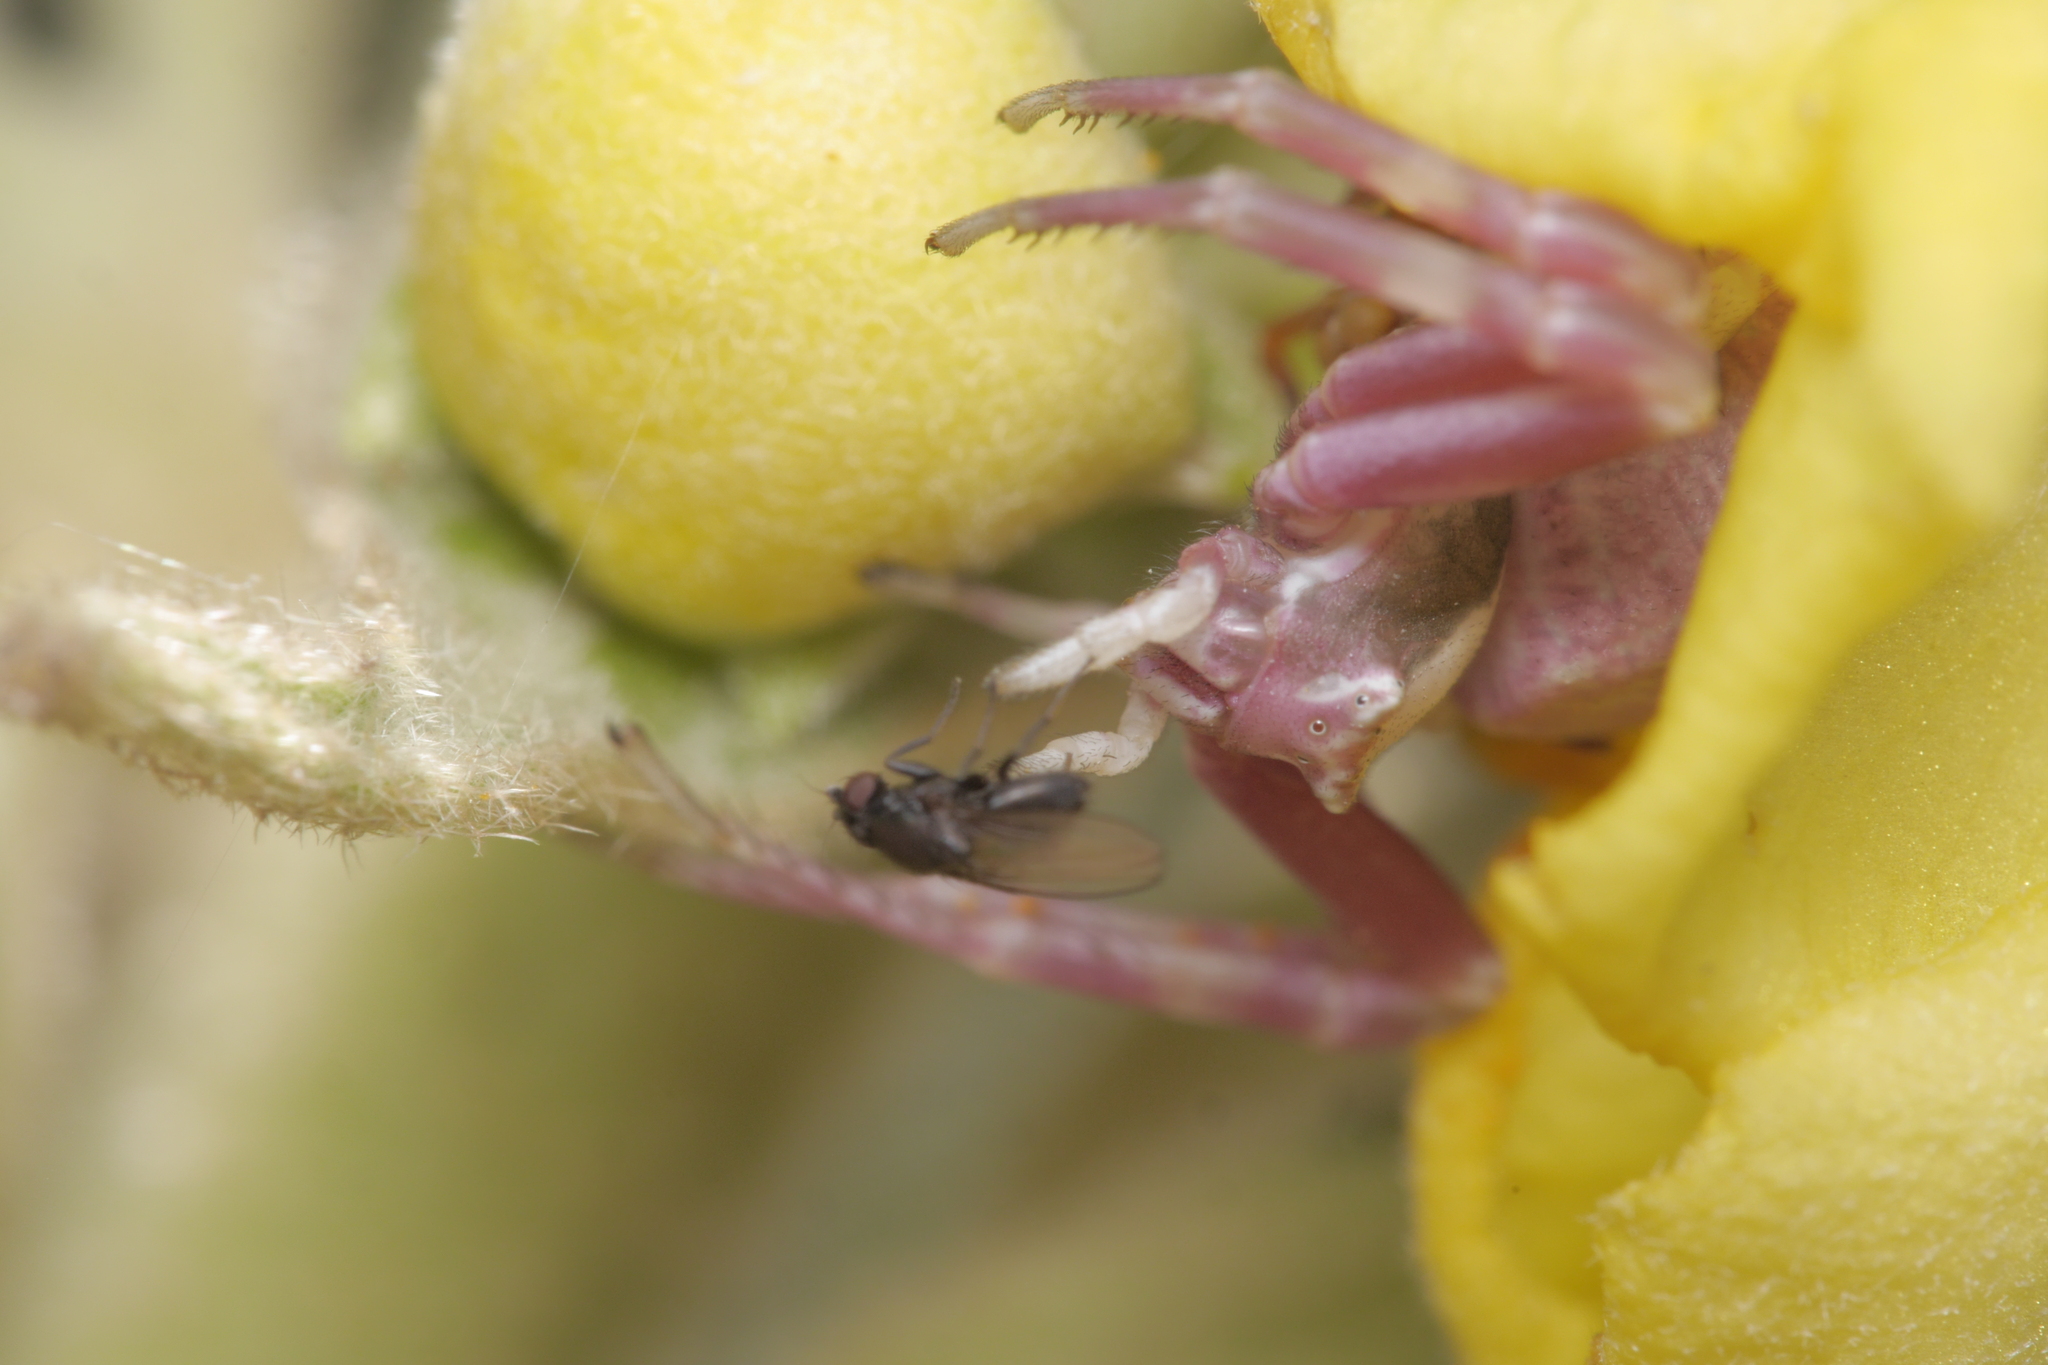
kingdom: Animalia
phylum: Arthropoda
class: Arachnida
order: Araneae
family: Thomisidae
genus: Thomisus
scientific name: Thomisus onustus
